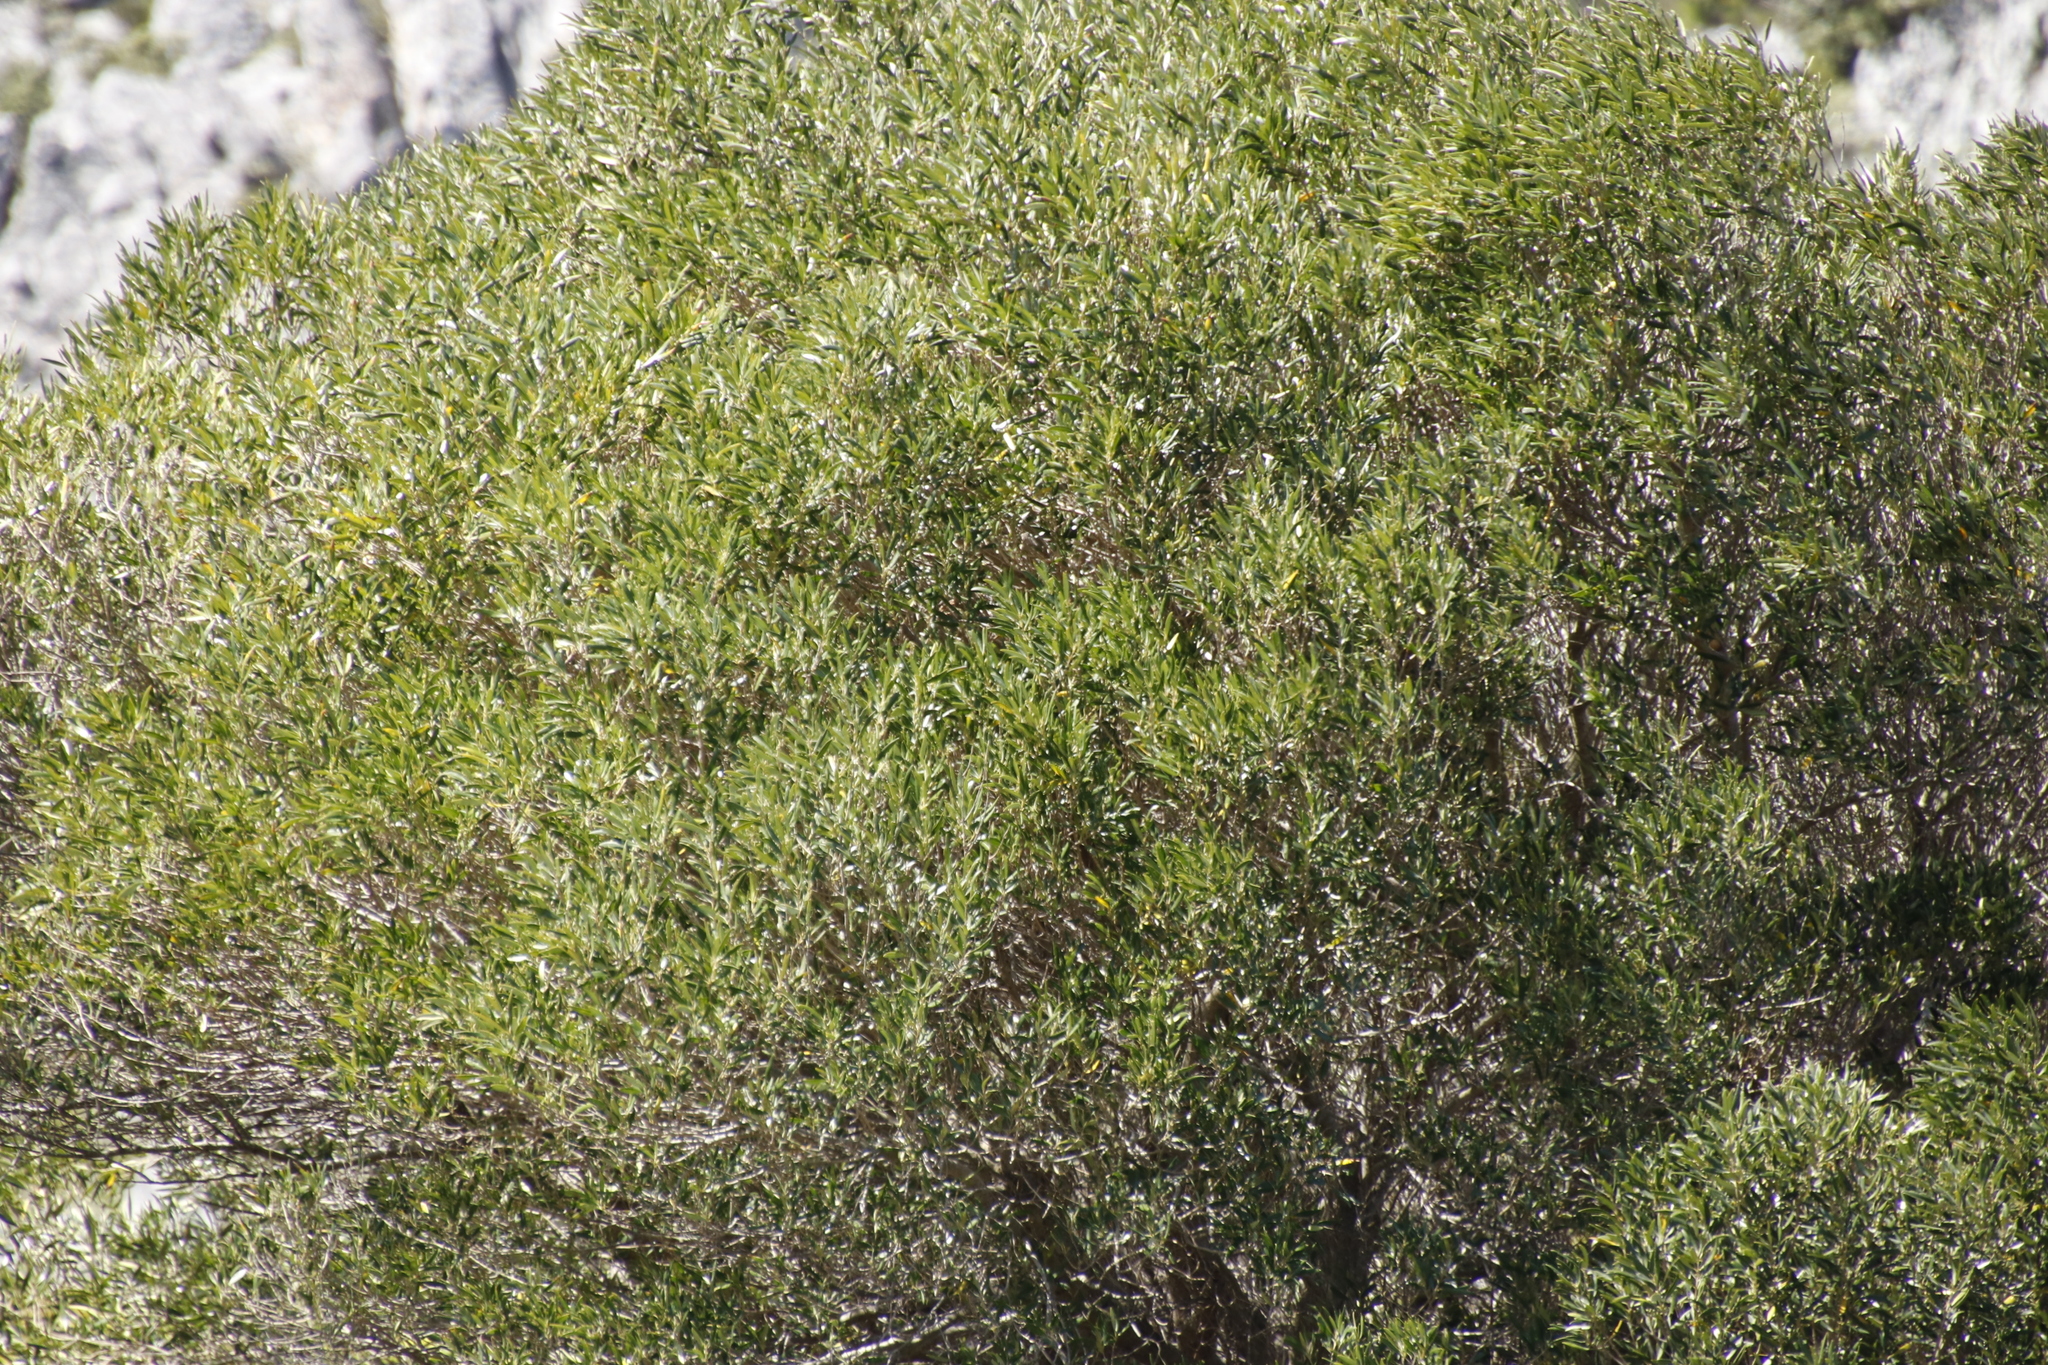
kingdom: Plantae
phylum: Tracheophyta
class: Magnoliopsida
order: Fabales
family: Fabaceae
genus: Acacia
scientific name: Acacia cyclops
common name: Coastal wattle
